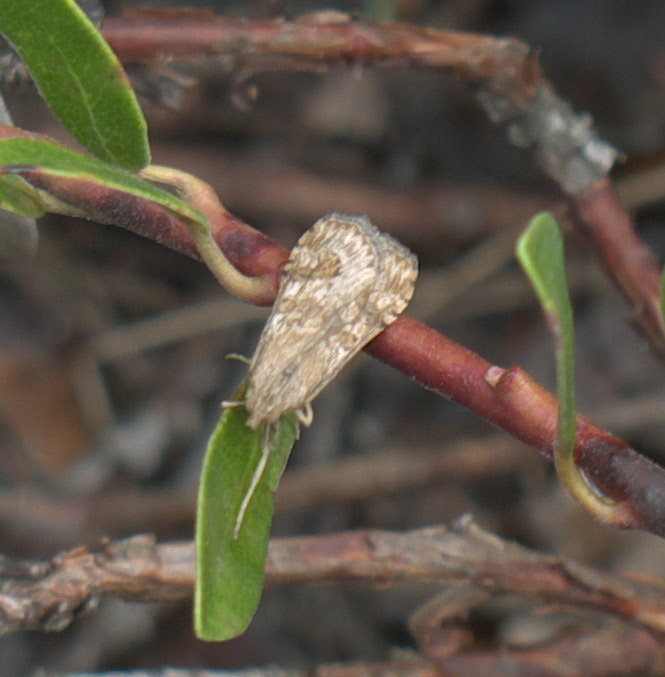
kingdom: Animalia
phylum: Arthropoda
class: Insecta
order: Lepidoptera
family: Crambidae
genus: Nomophila
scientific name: Nomophila nearctica
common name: American rush veneer
